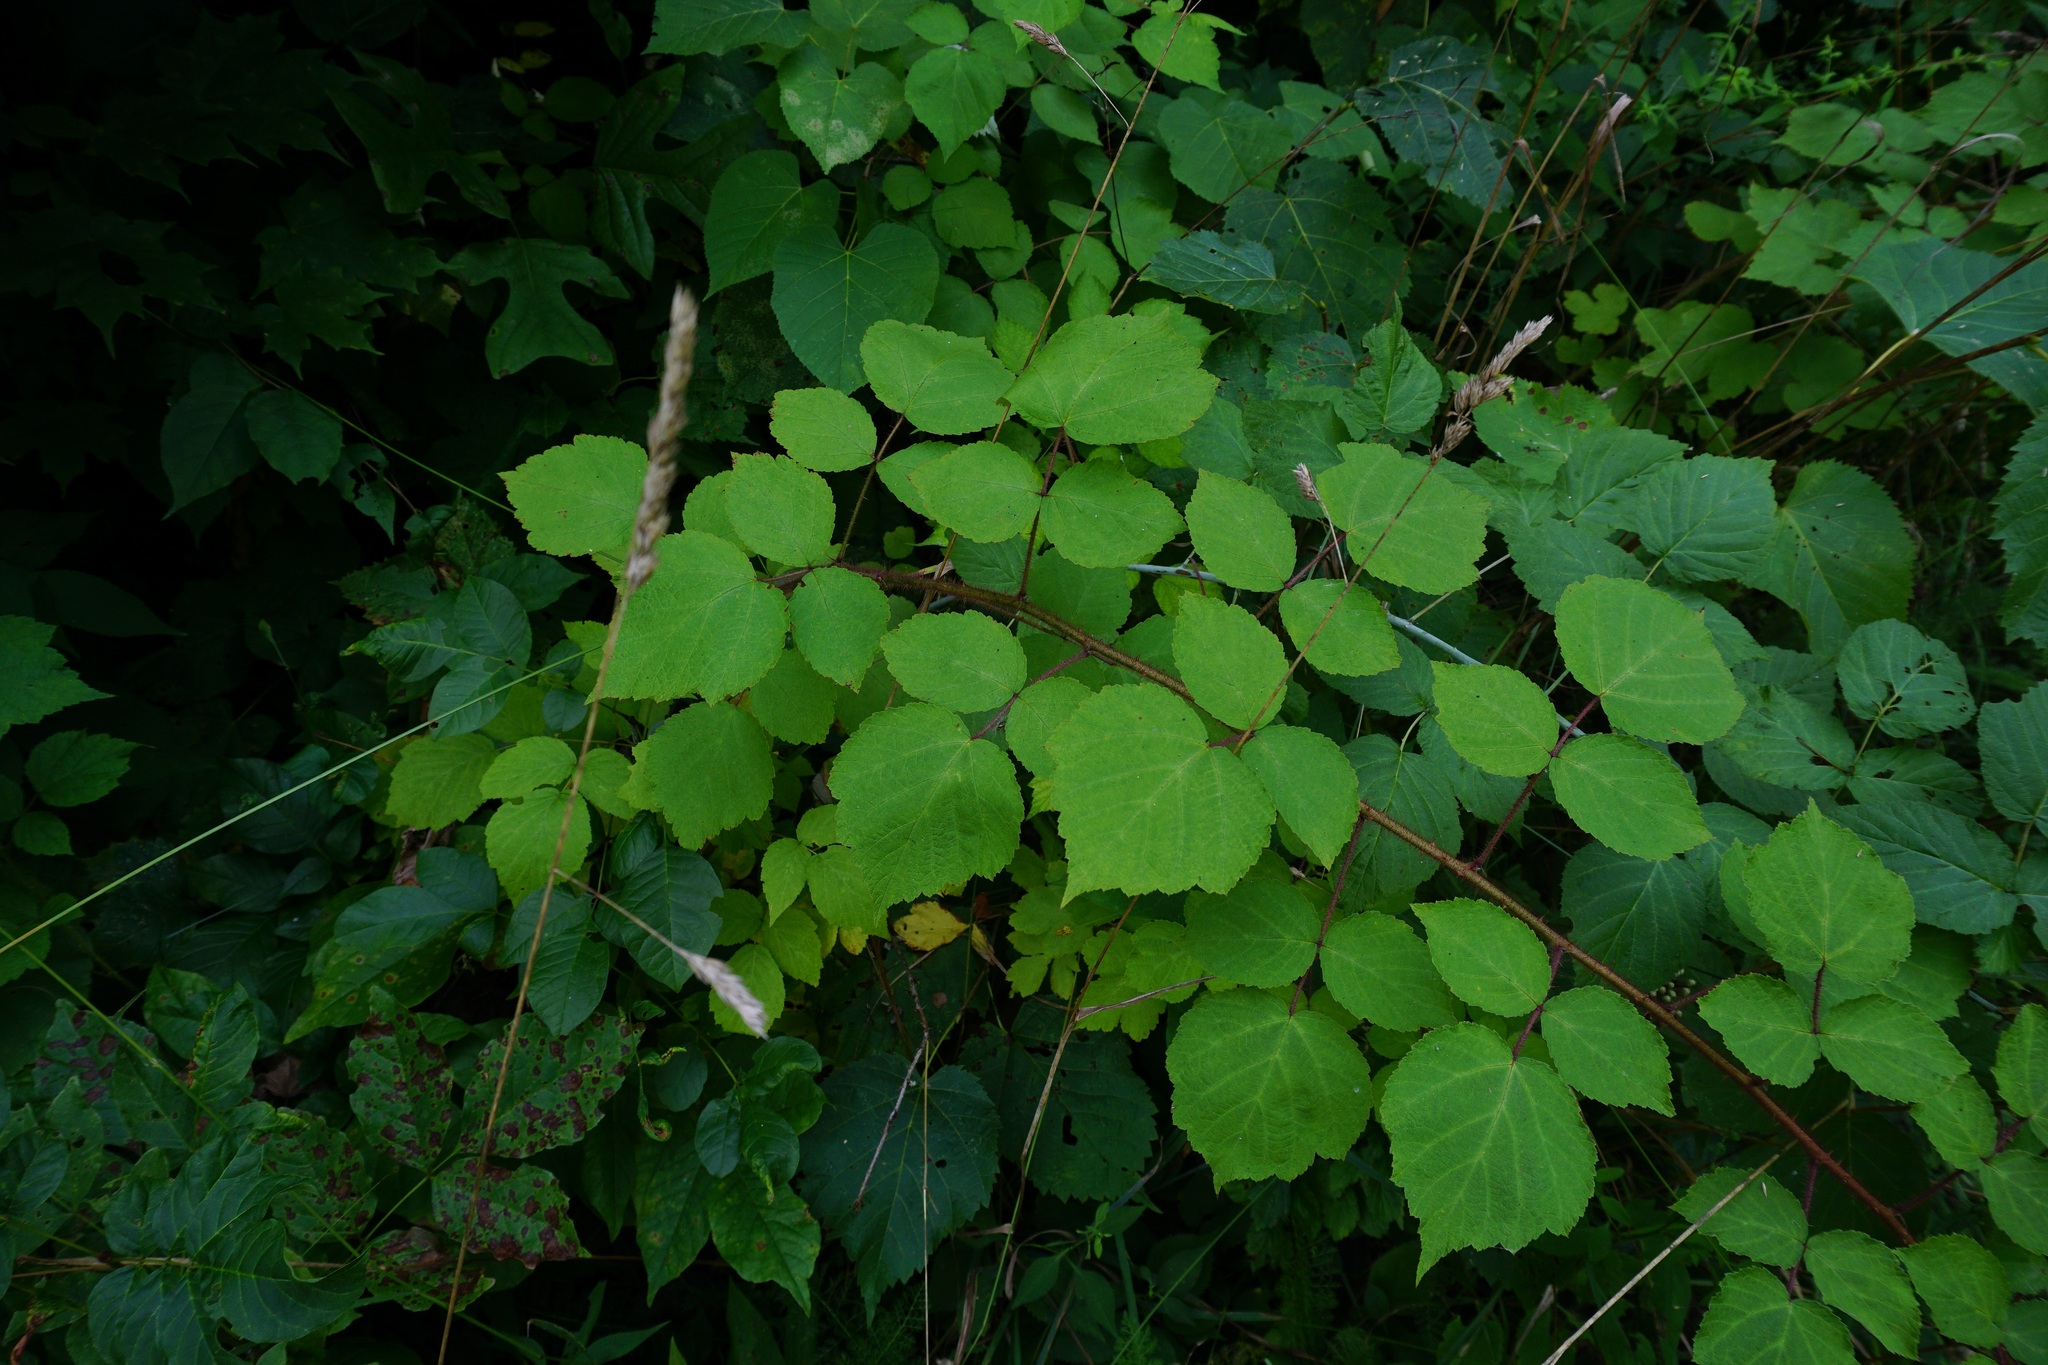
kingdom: Plantae
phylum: Tracheophyta
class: Magnoliopsida
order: Rosales
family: Rosaceae
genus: Rubus
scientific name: Rubus phoenicolasius
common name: Japanese wineberry
